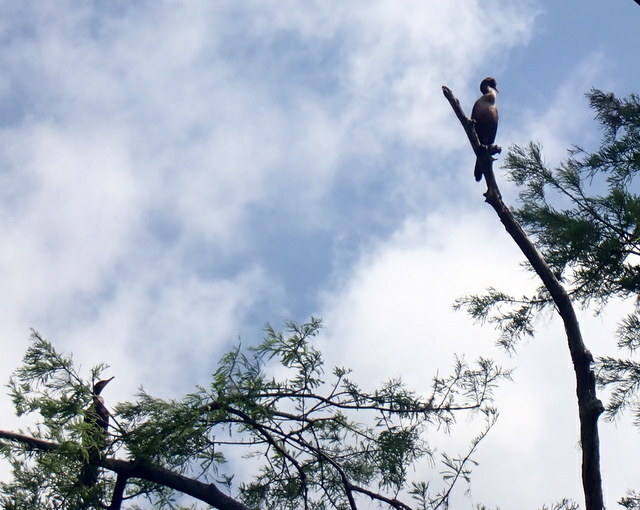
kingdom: Animalia
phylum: Chordata
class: Aves
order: Suliformes
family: Phalacrocoracidae
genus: Phalacrocorax
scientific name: Phalacrocorax auritus
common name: Double-crested cormorant
